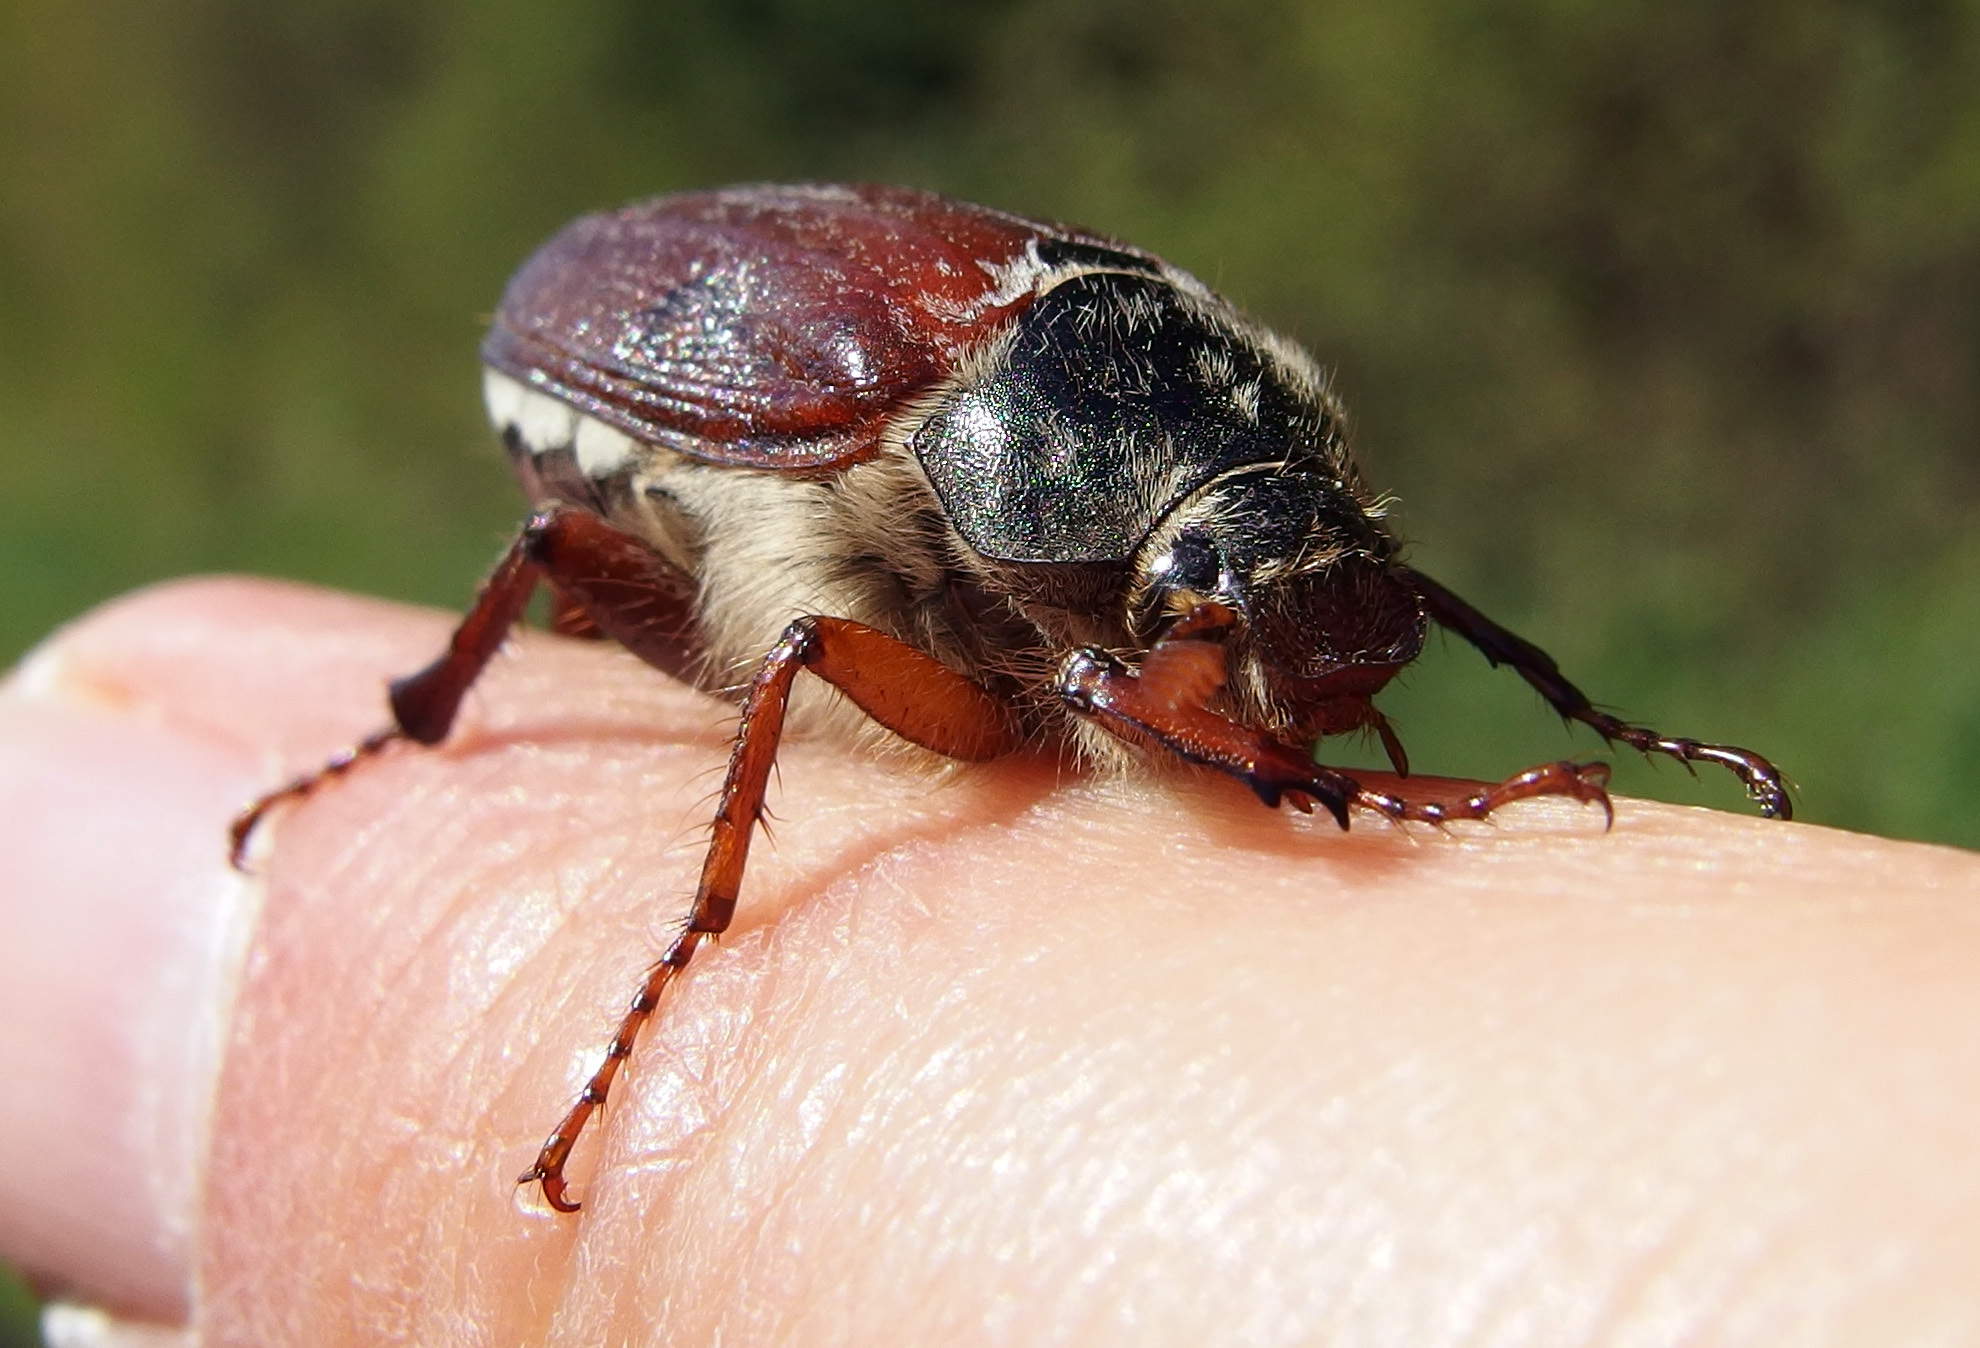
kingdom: Animalia
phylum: Arthropoda
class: Insecta
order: Coleoptera
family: Scarabaeidae
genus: Melolontha
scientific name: Melolontha melolontha
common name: Cockchafer maybeetle
